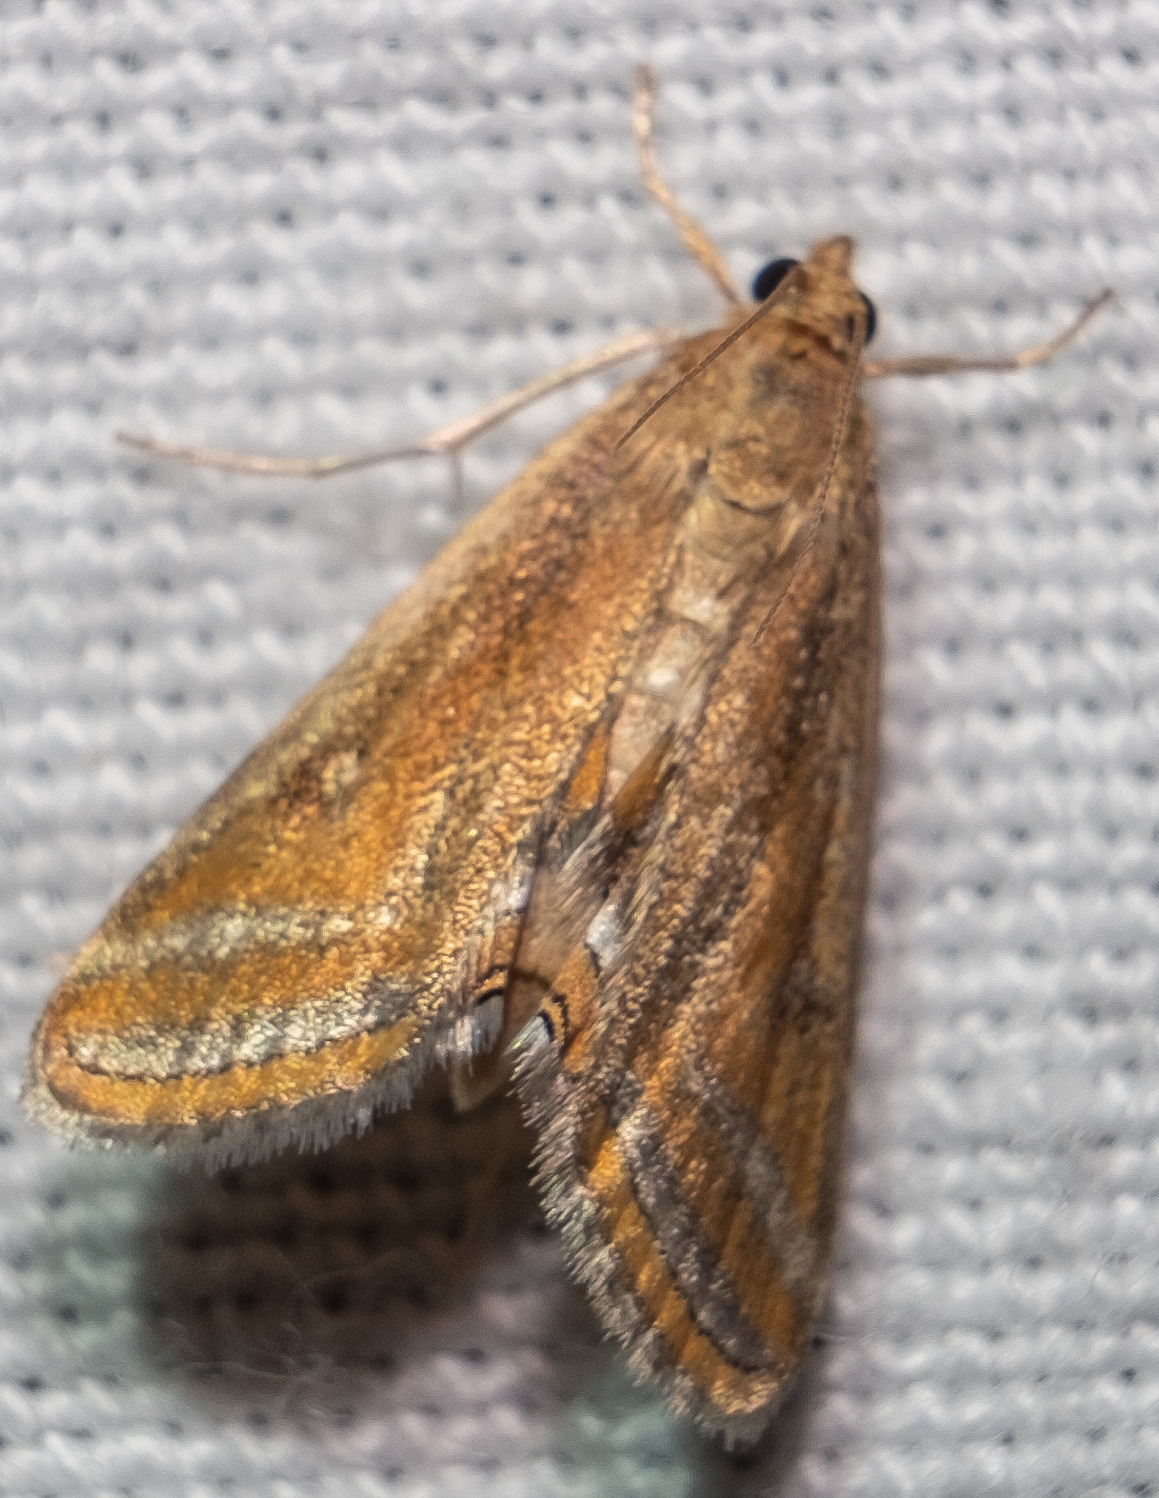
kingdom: Animalia
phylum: Arthropoda
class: Insecta
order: Lepidoptera
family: Crambidae
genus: Parapoynx
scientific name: Parapoynx seminealis
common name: Floating-heart waterlily leafcutter
